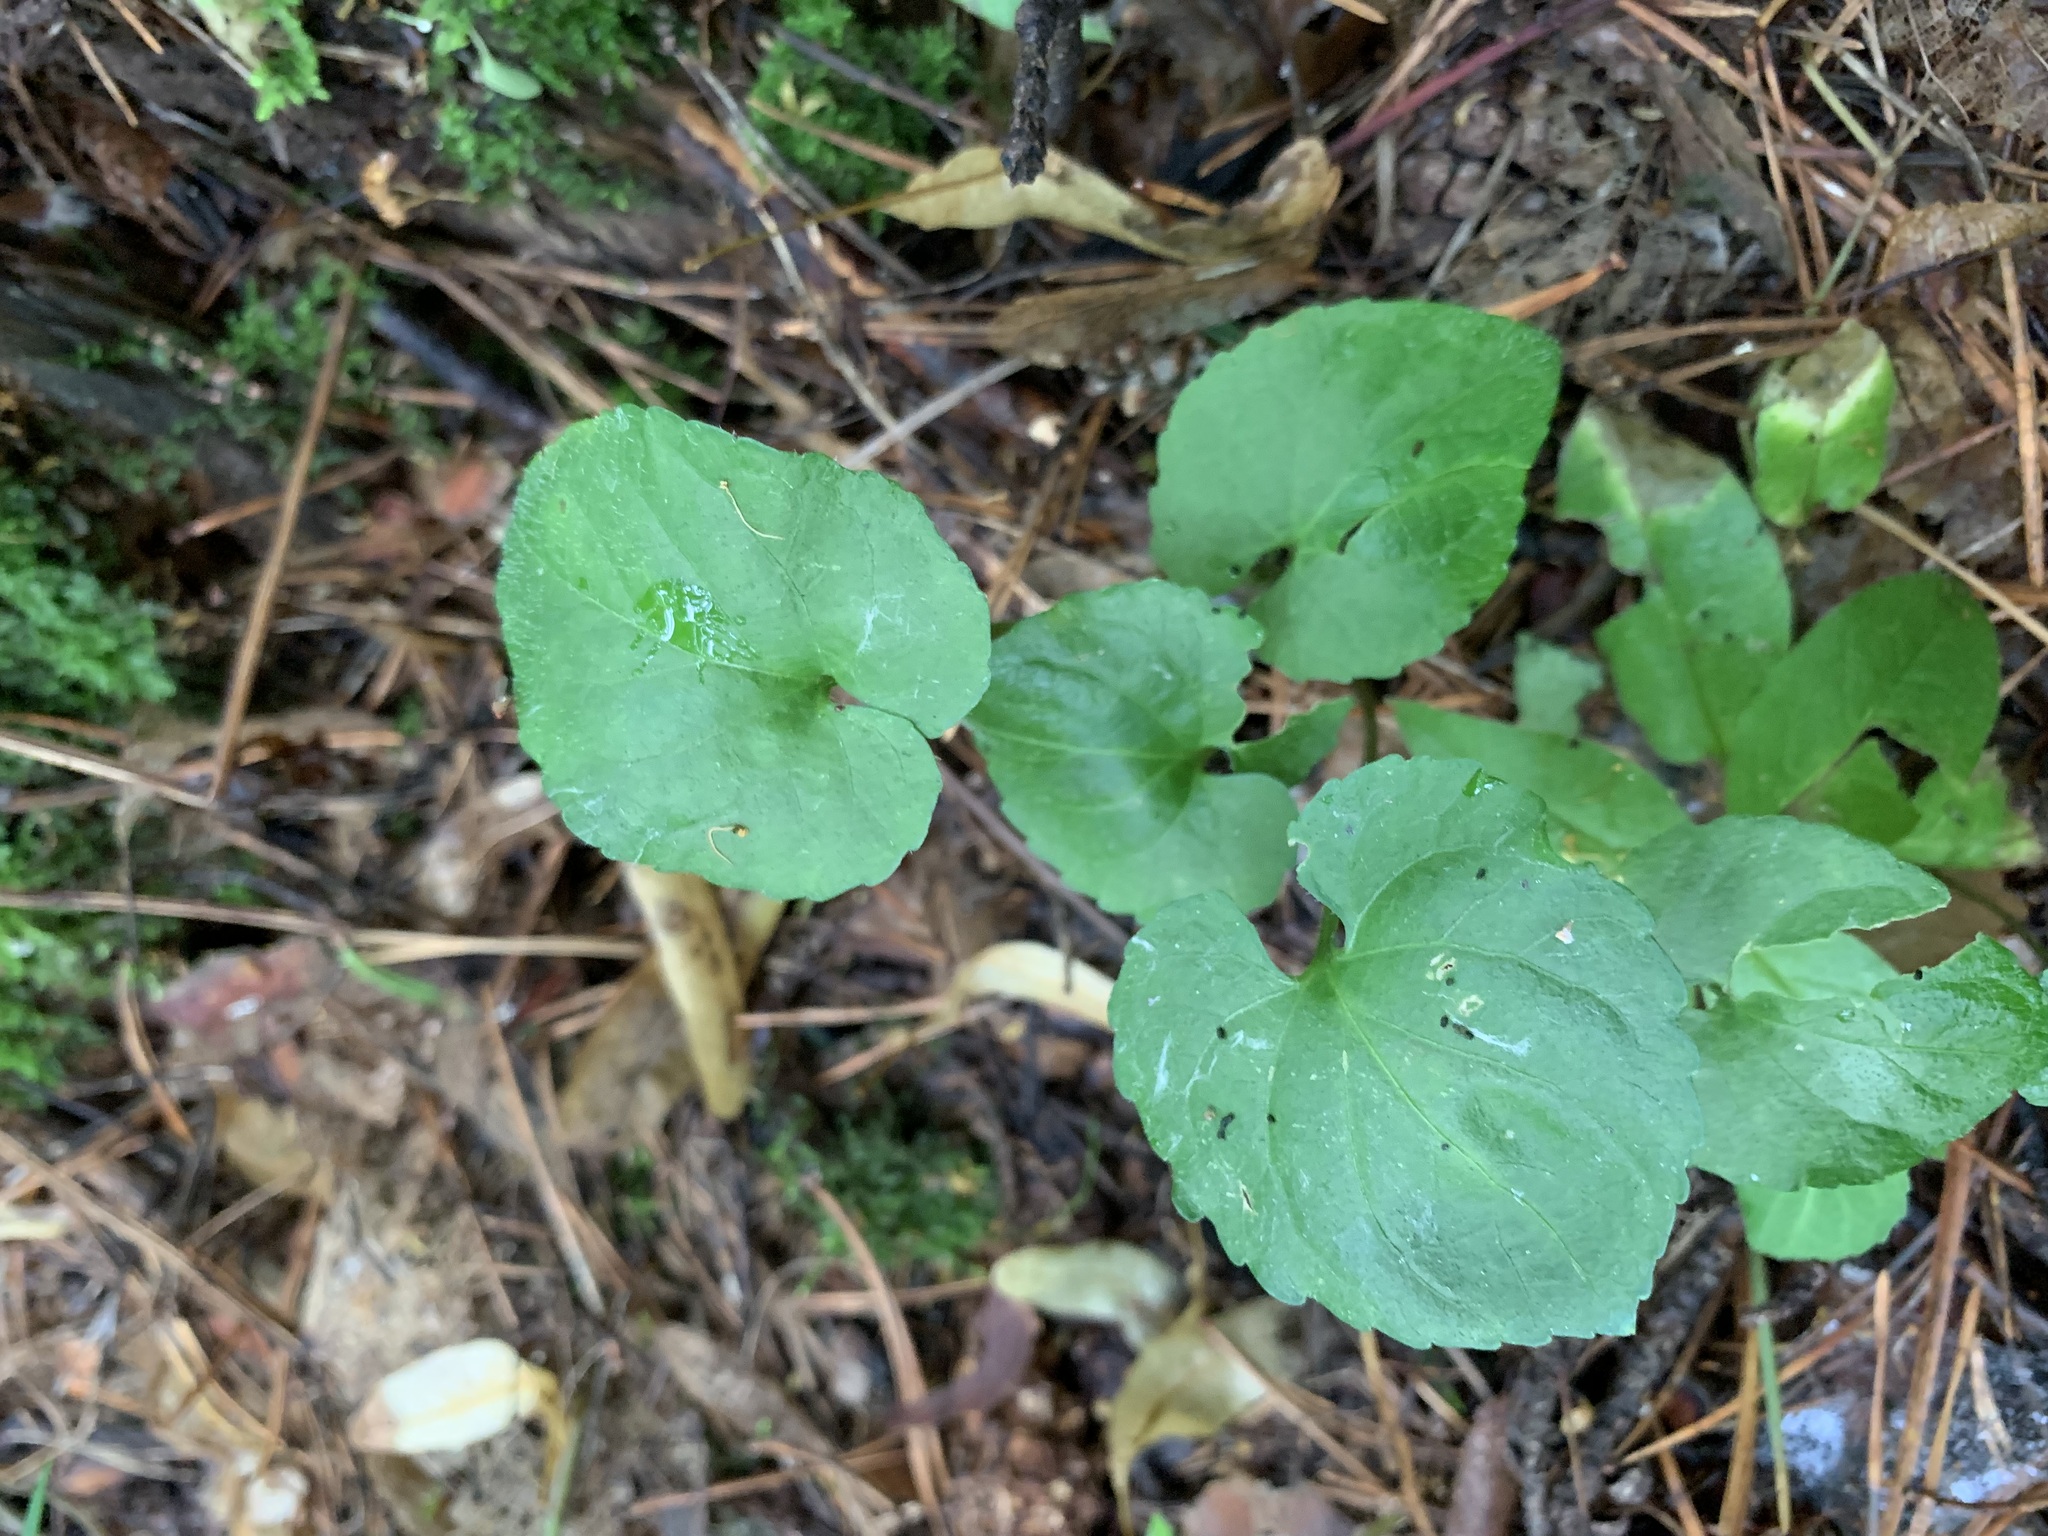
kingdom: Plantae
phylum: Tracheophyta
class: Magnoliopsida
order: Malpighiales
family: Violaceae
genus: Viola
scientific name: Viola selkirkii
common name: Selkirk's violet
